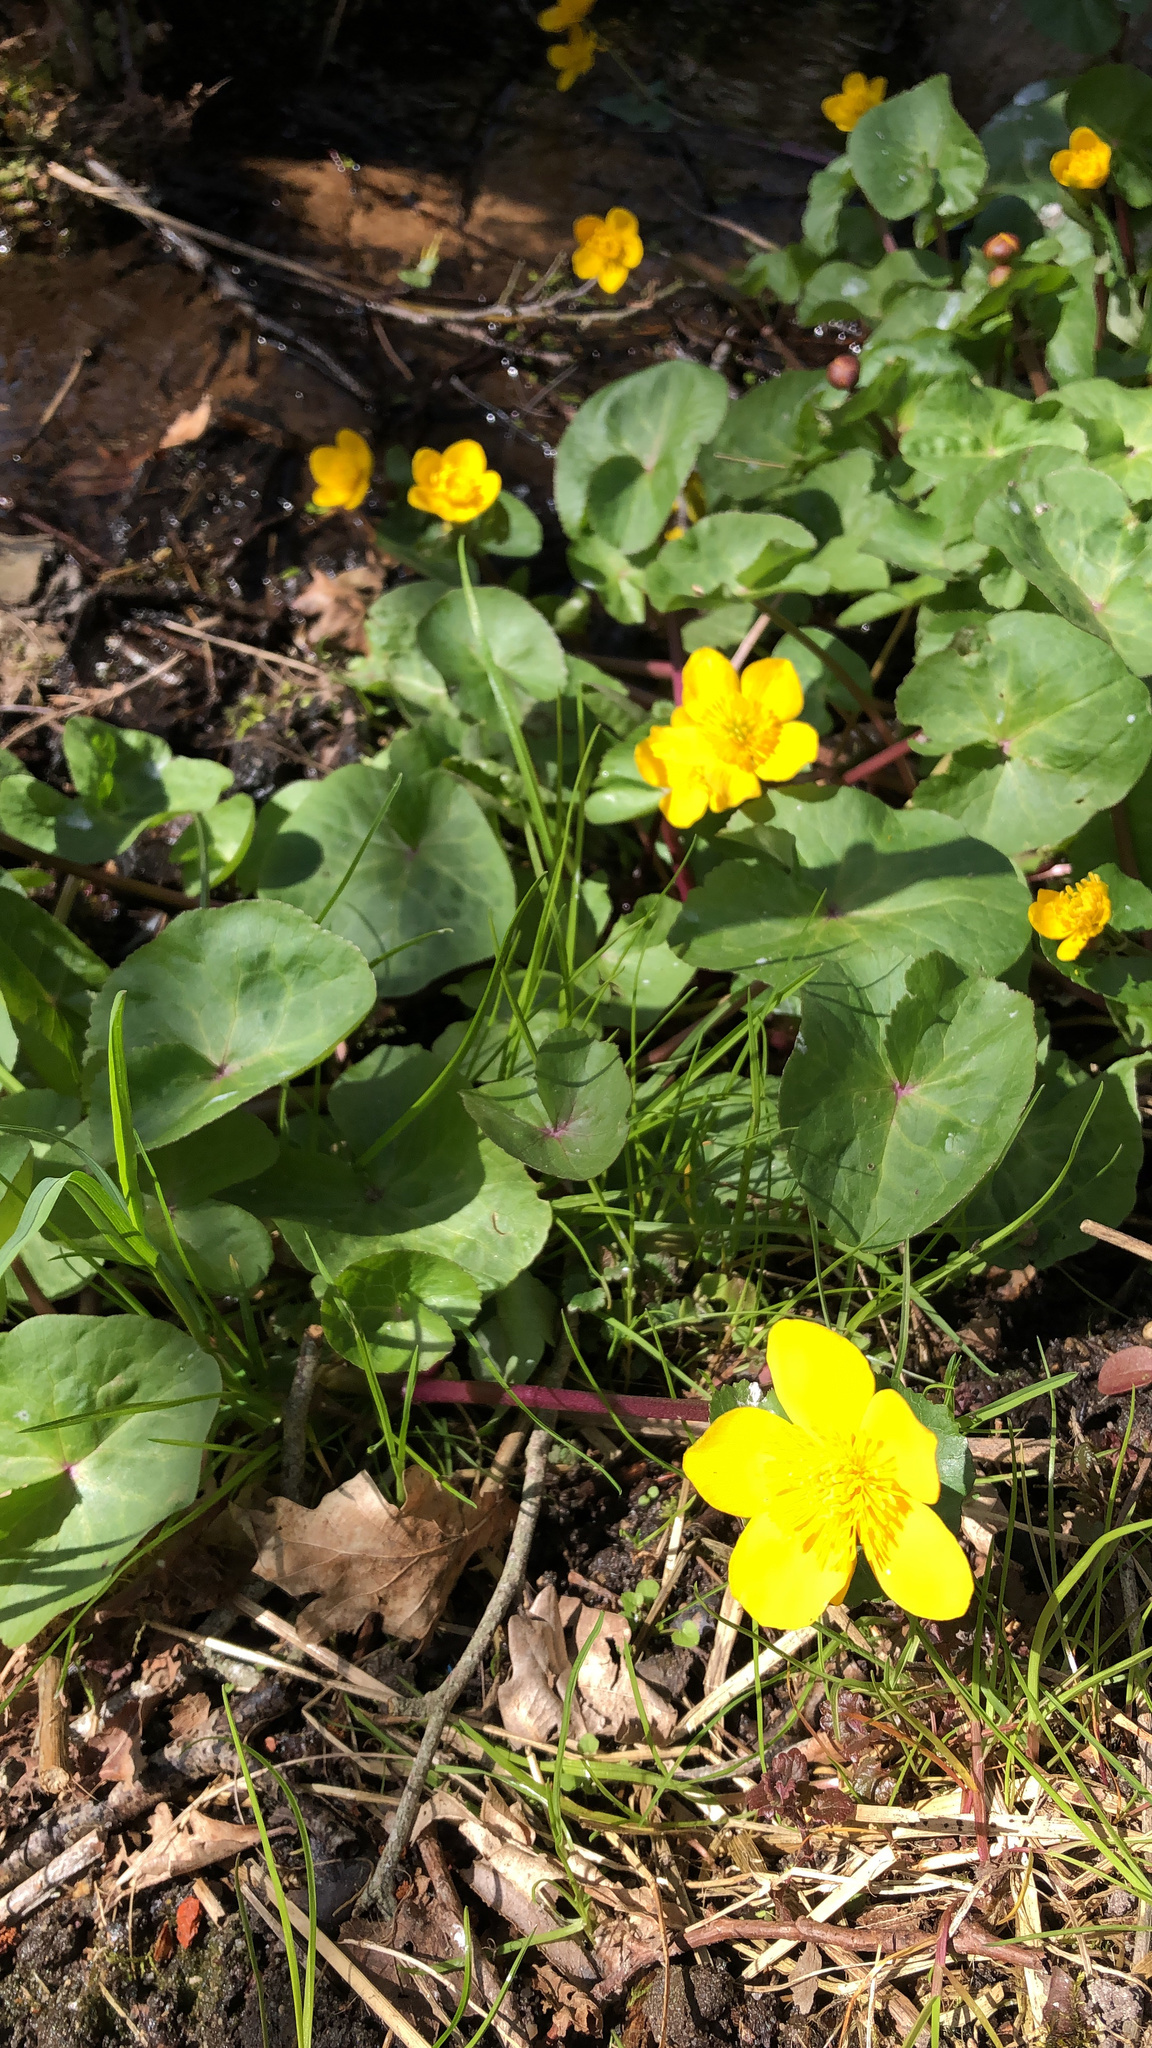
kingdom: Plantae
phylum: Tracheophyta
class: Magnoliopsida
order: Ranunculales
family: Ranunculaceae
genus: Caltha
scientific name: Caltha palustris
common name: Marsh marigold
